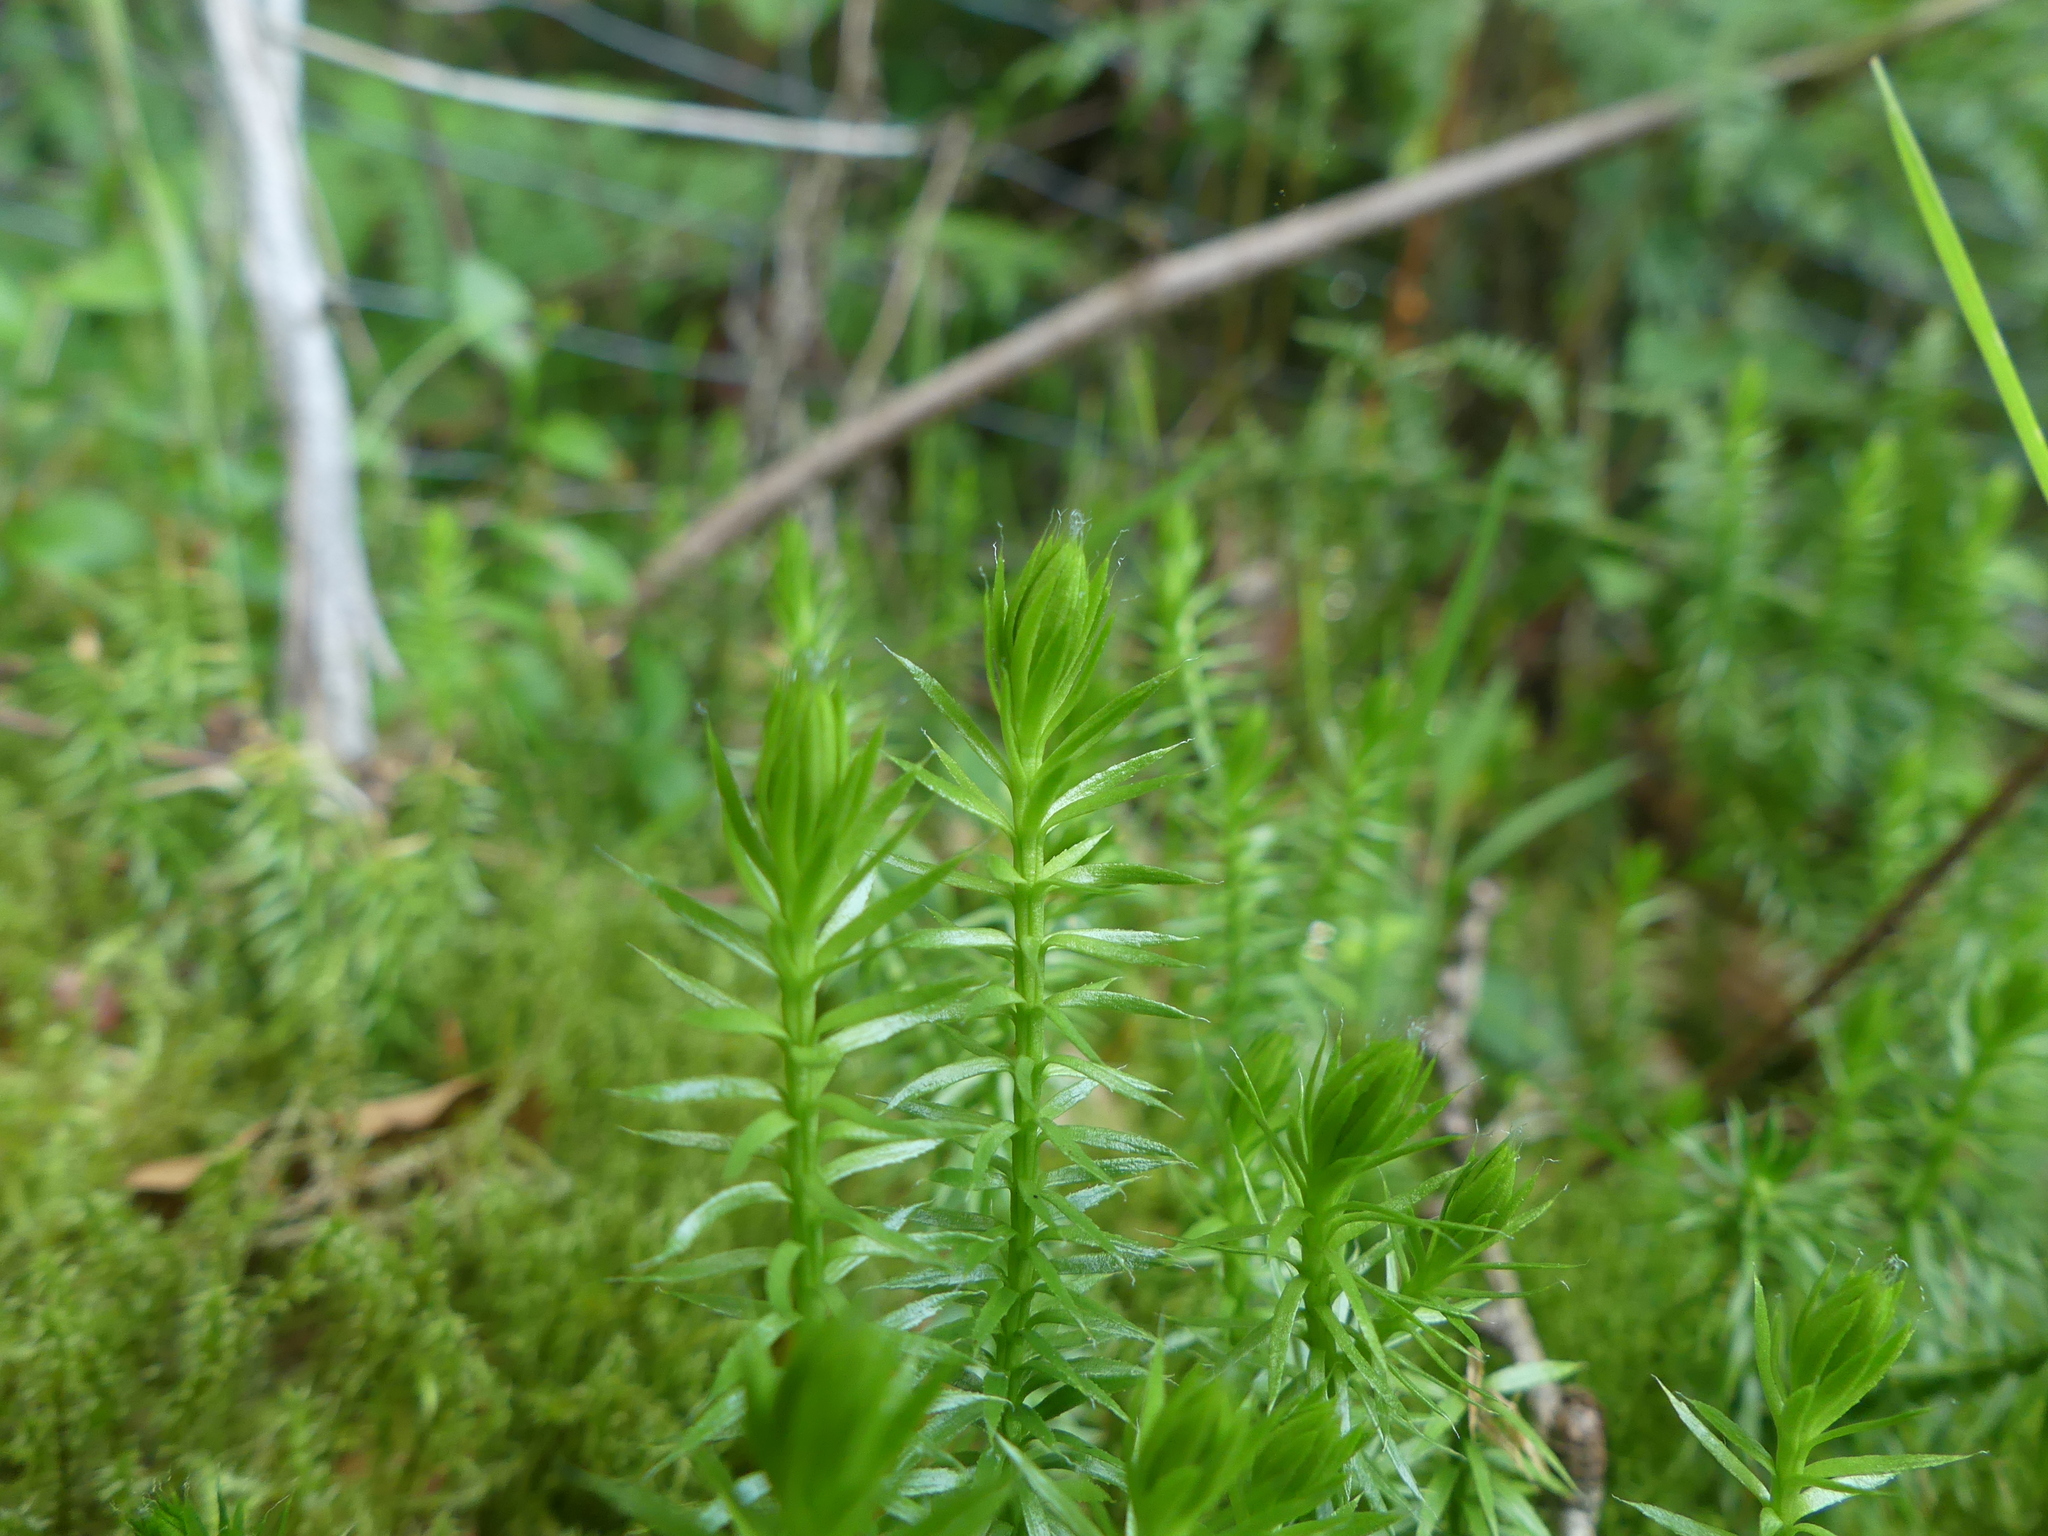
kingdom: Plantae
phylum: Tracheophyta
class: Lycopodiopsida
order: Lycopodiales
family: Lycopodiaceae
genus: Spinulum
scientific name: Spinulum annotinum
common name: Interrupted club-moss
